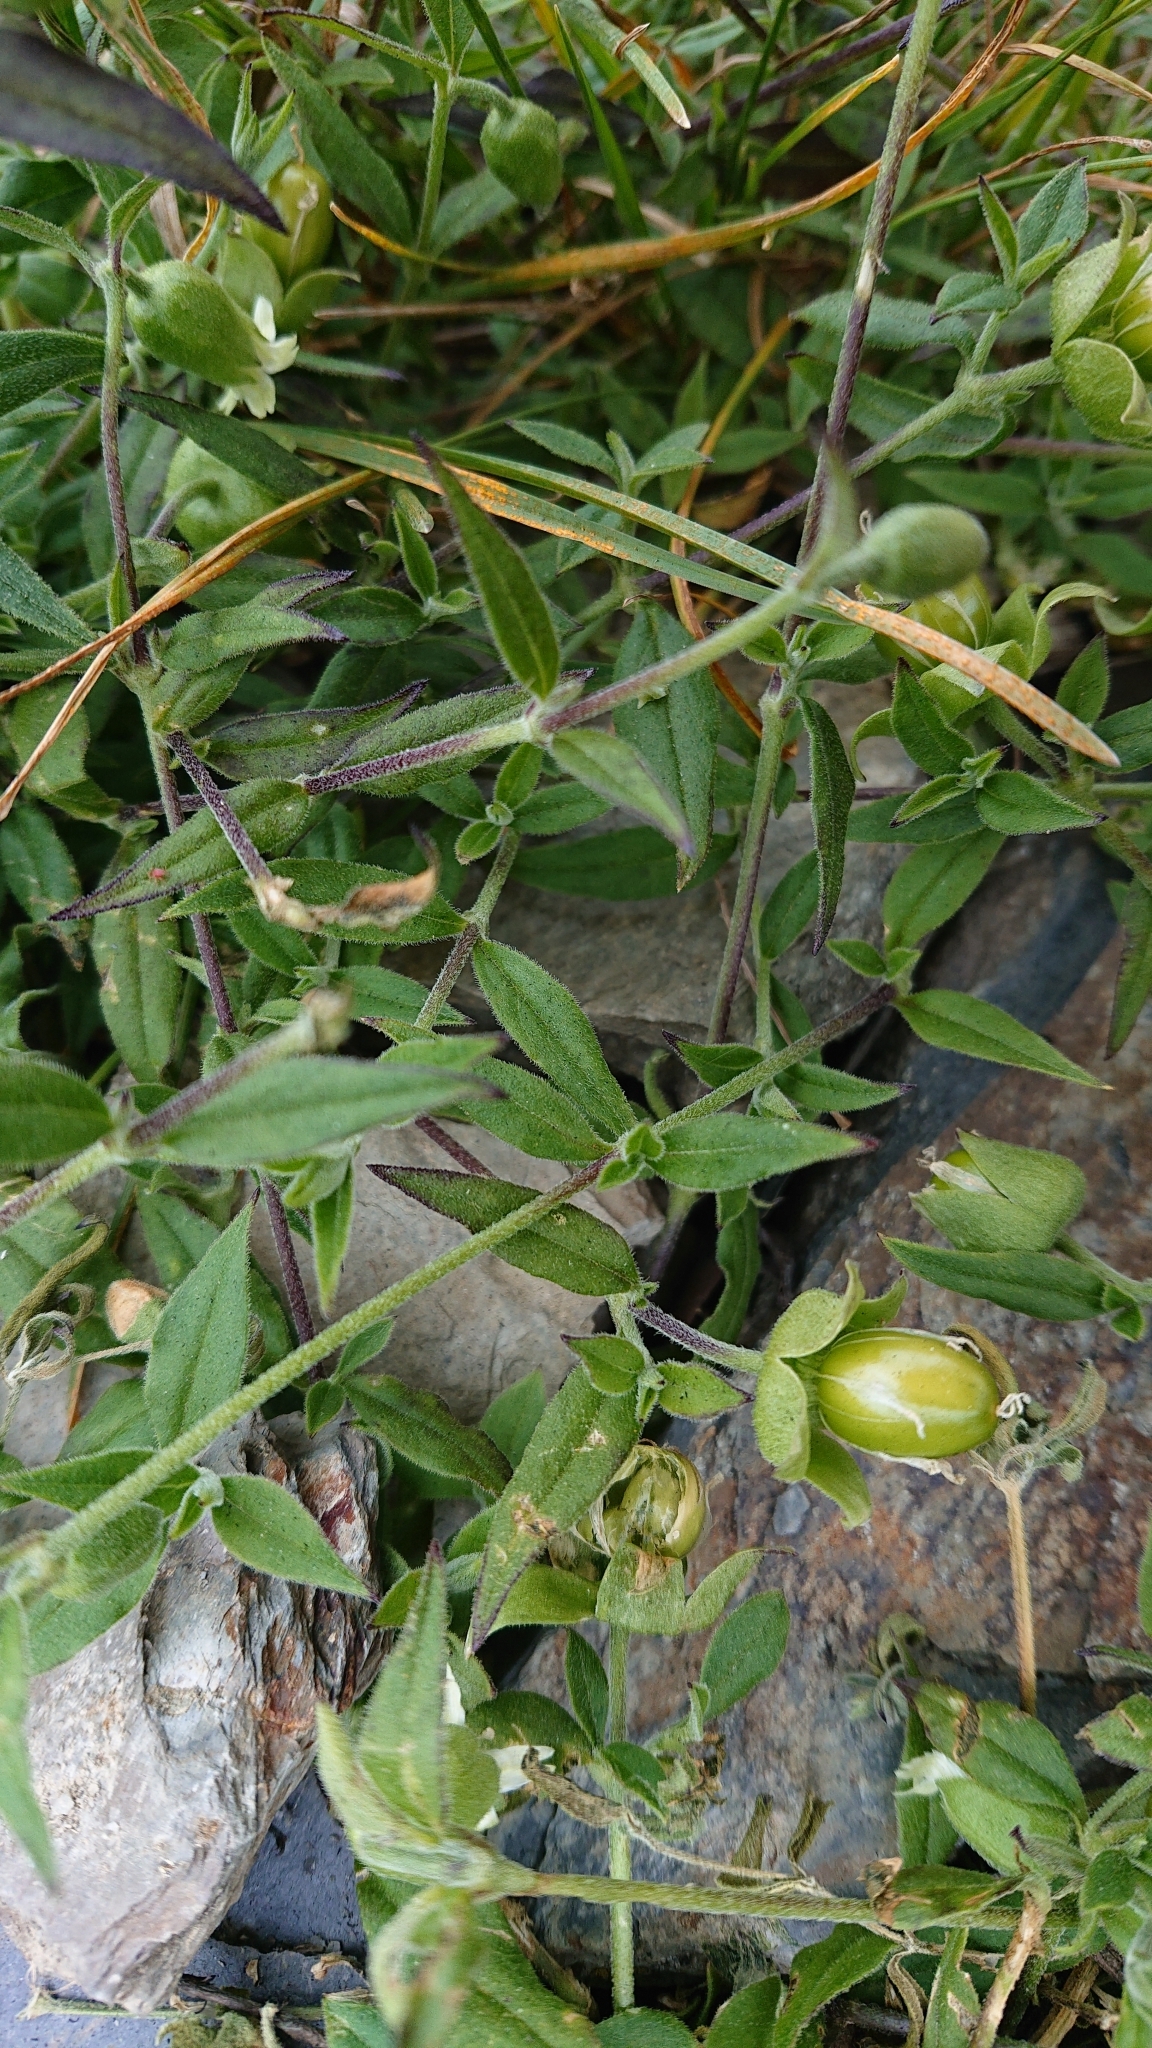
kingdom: Plantae
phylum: Tracheophyta
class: Magnoliopsida
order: Caryophyllales
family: Caryophyllaceae
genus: Silene
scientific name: Silene baccifera
